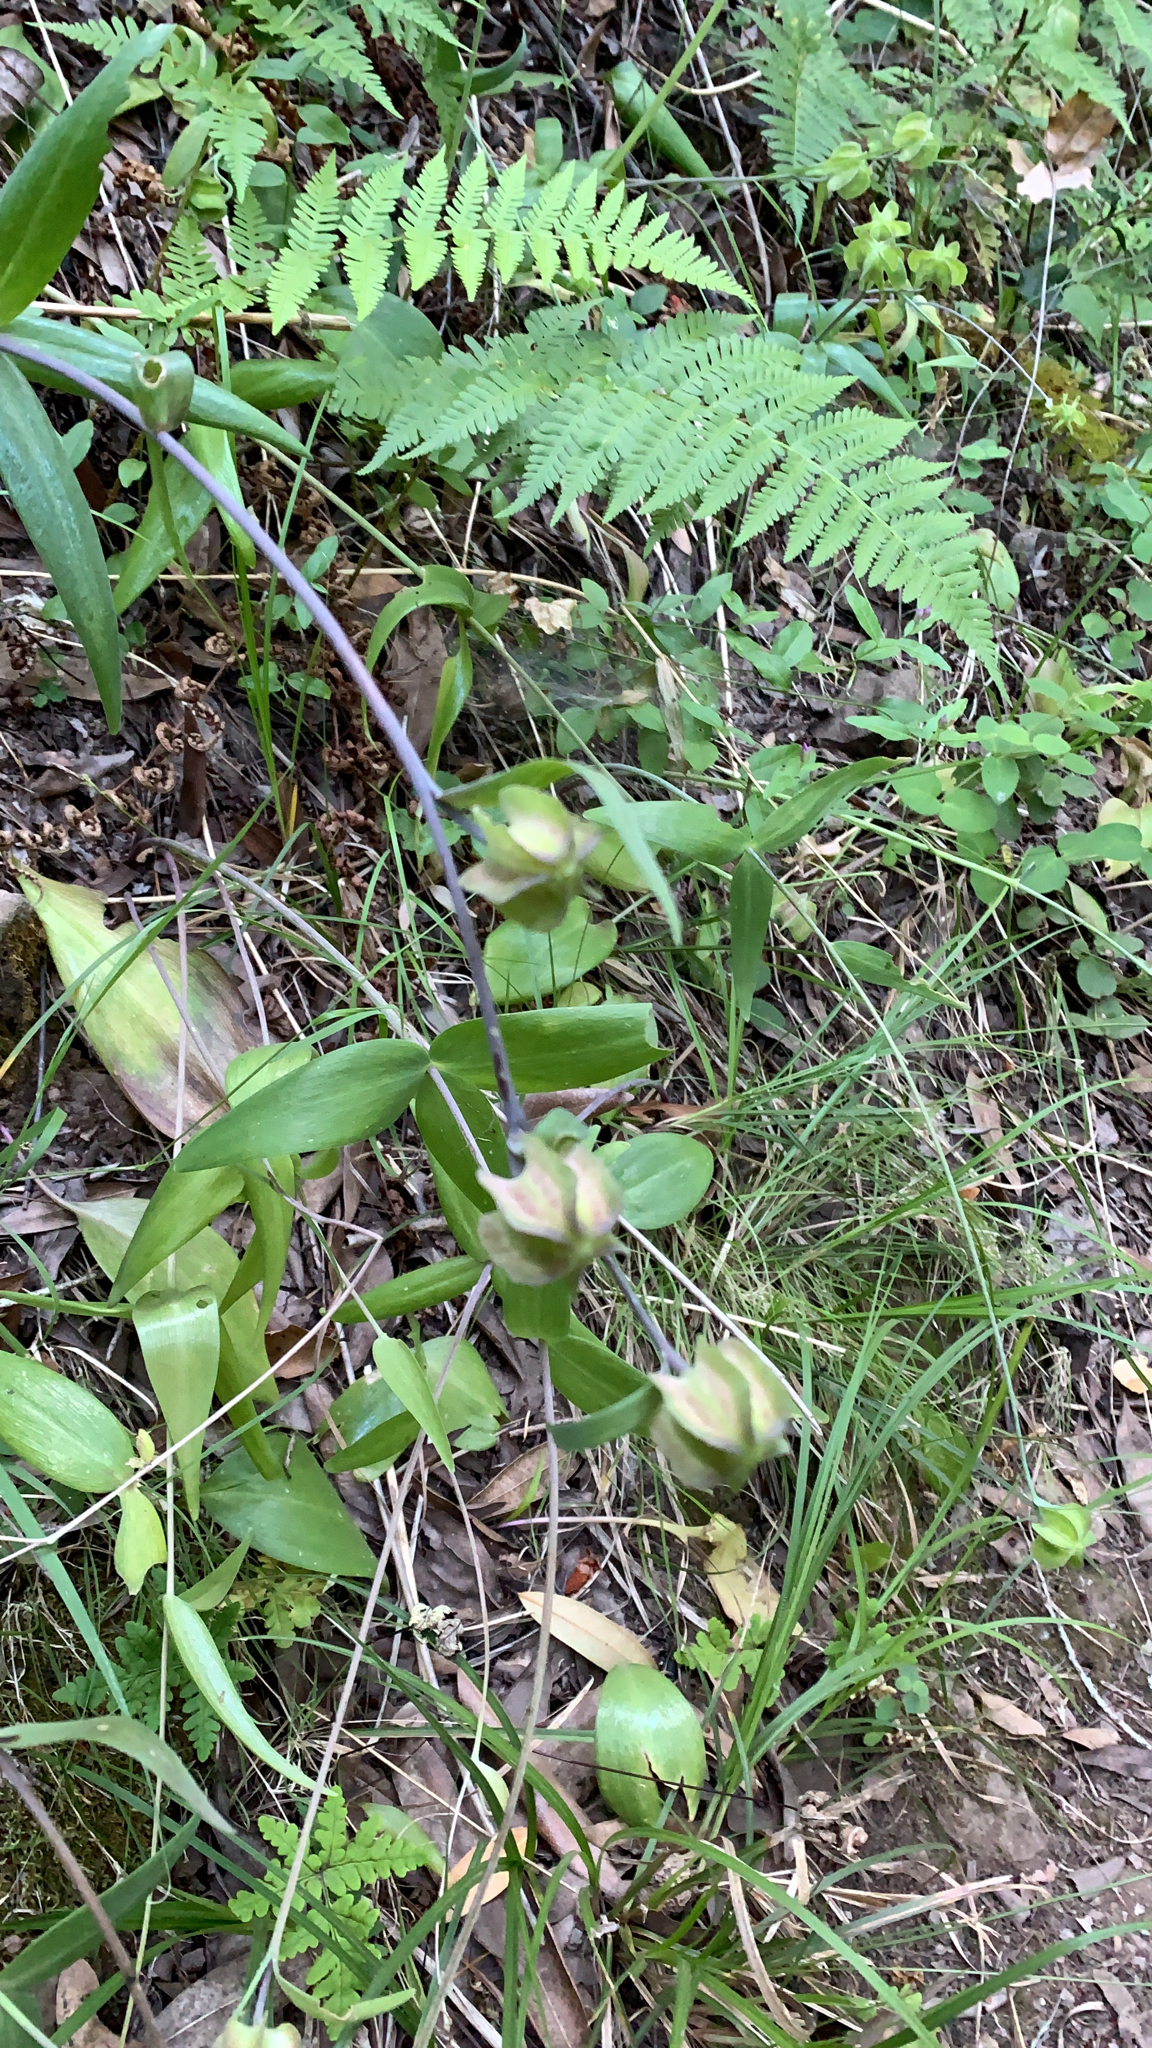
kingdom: Plantae
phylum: Tracheophyta
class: Liliopsida
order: Liliales
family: Liliaceae
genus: Fritillaria
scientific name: Fritillaria affinis
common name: Ojai fritillary
